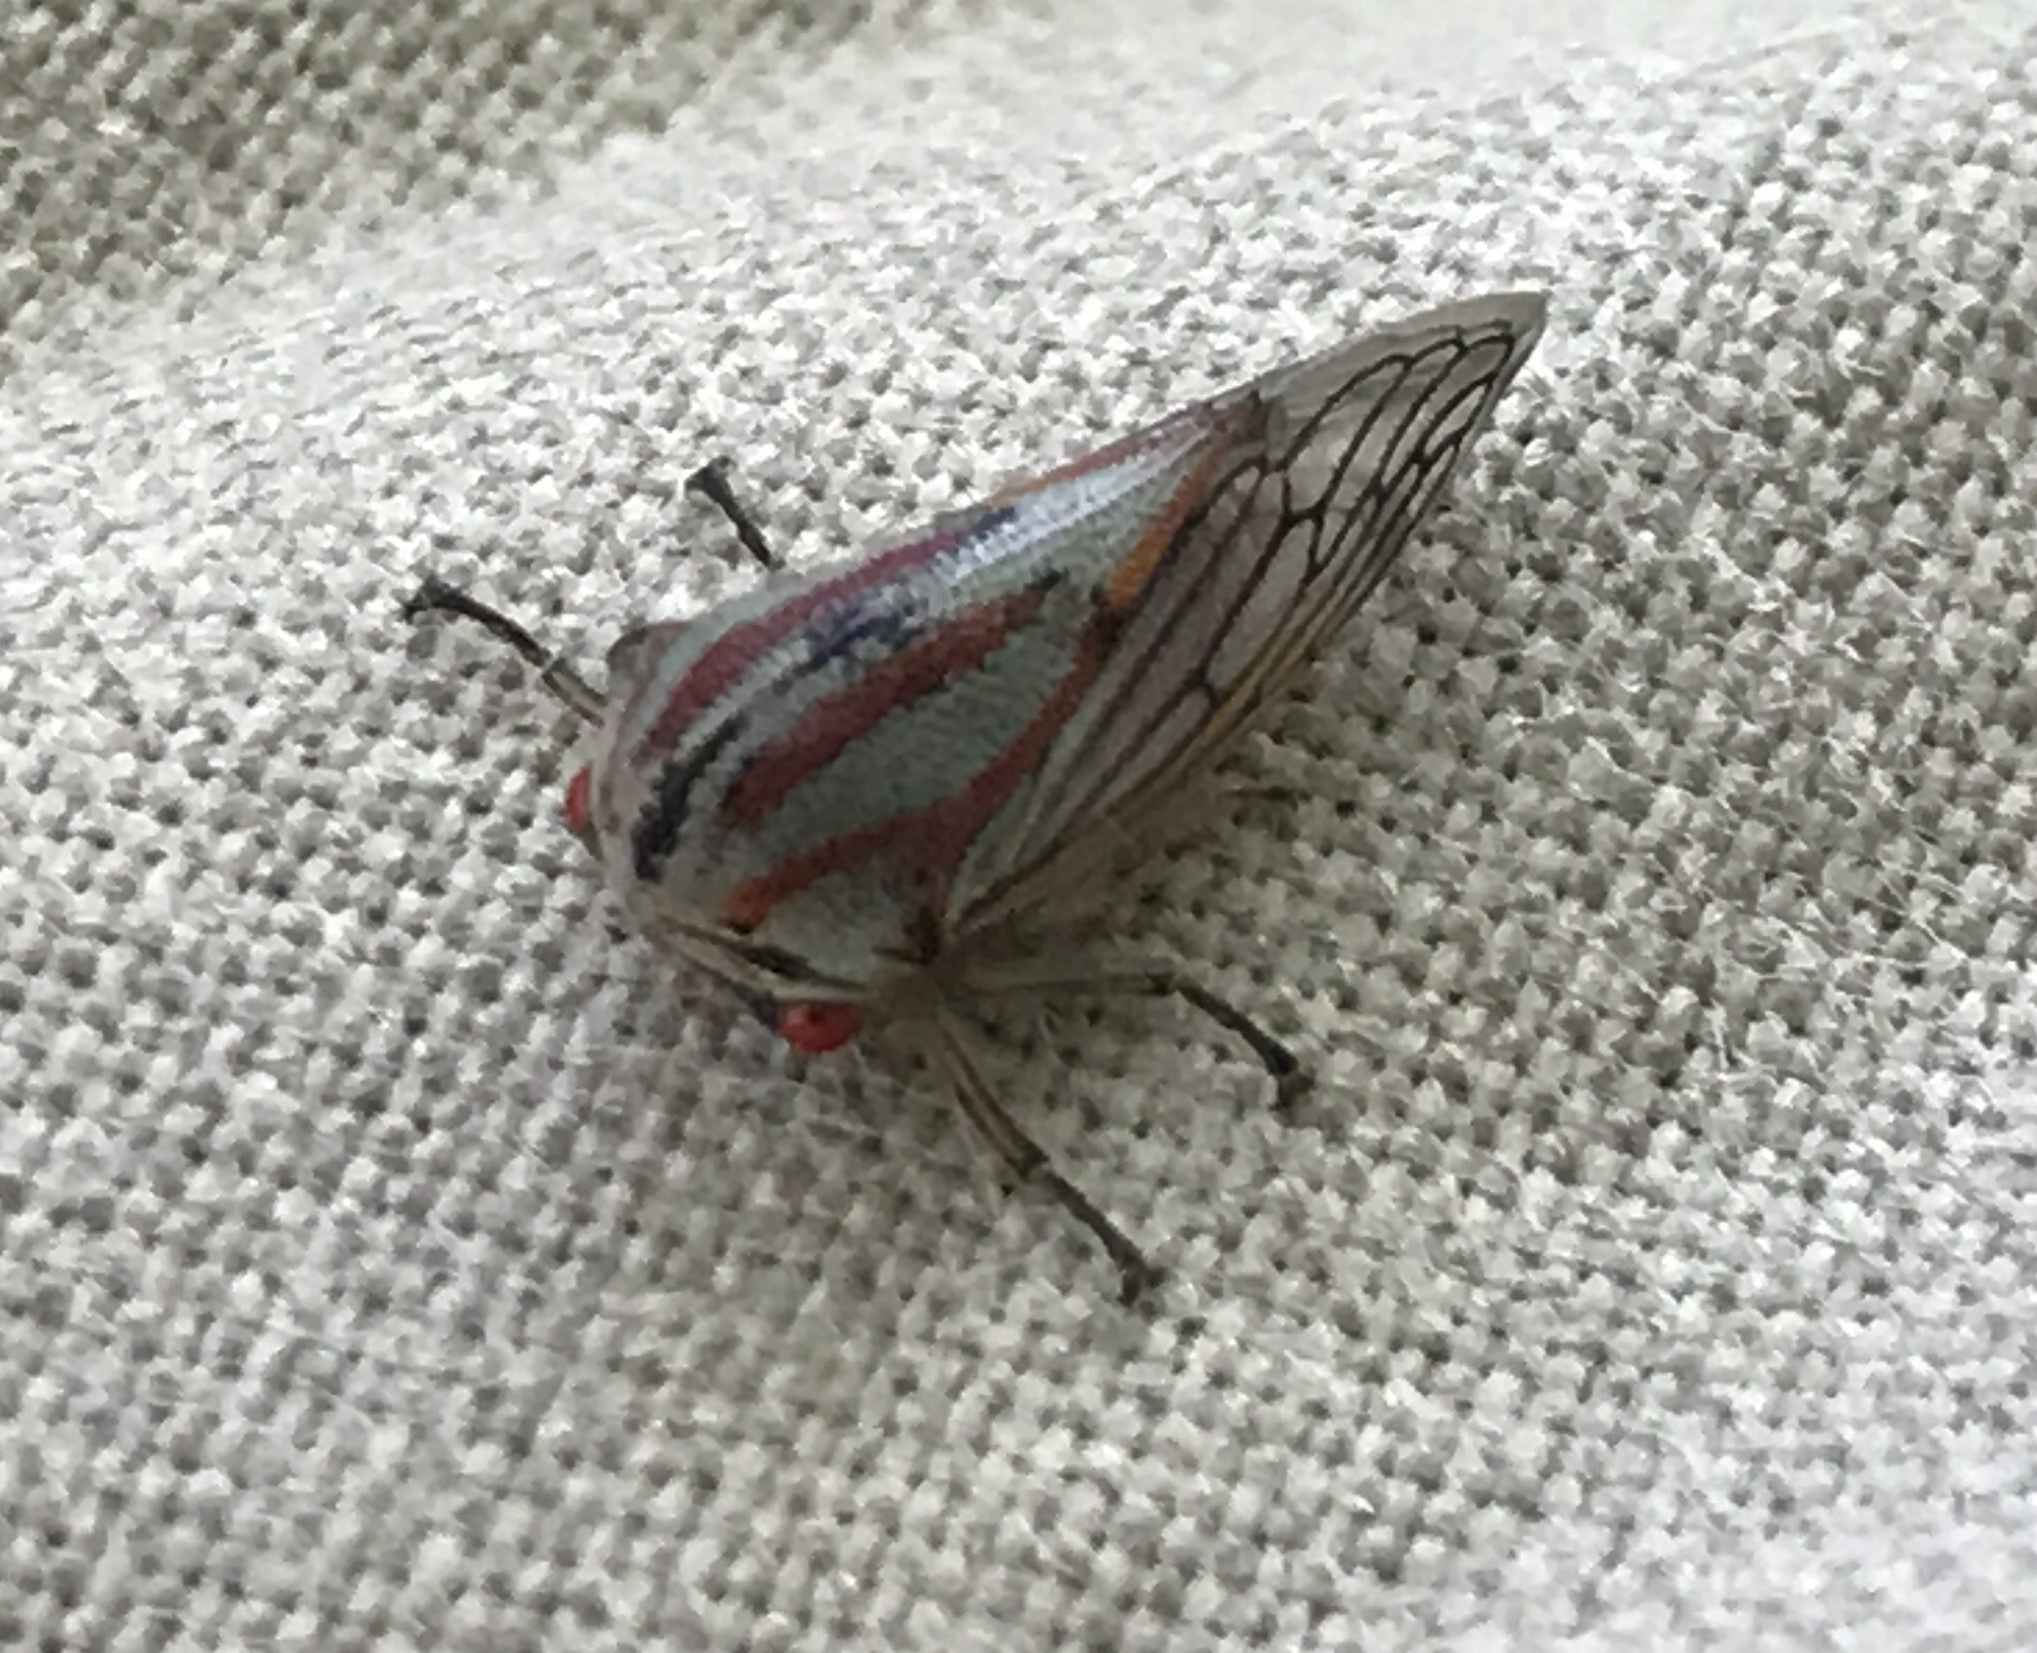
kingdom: Animalia
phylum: Arthropoda
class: Insecta
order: Hemiptera
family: Membracidae
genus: Platycotis
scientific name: Platycotis vittatus
